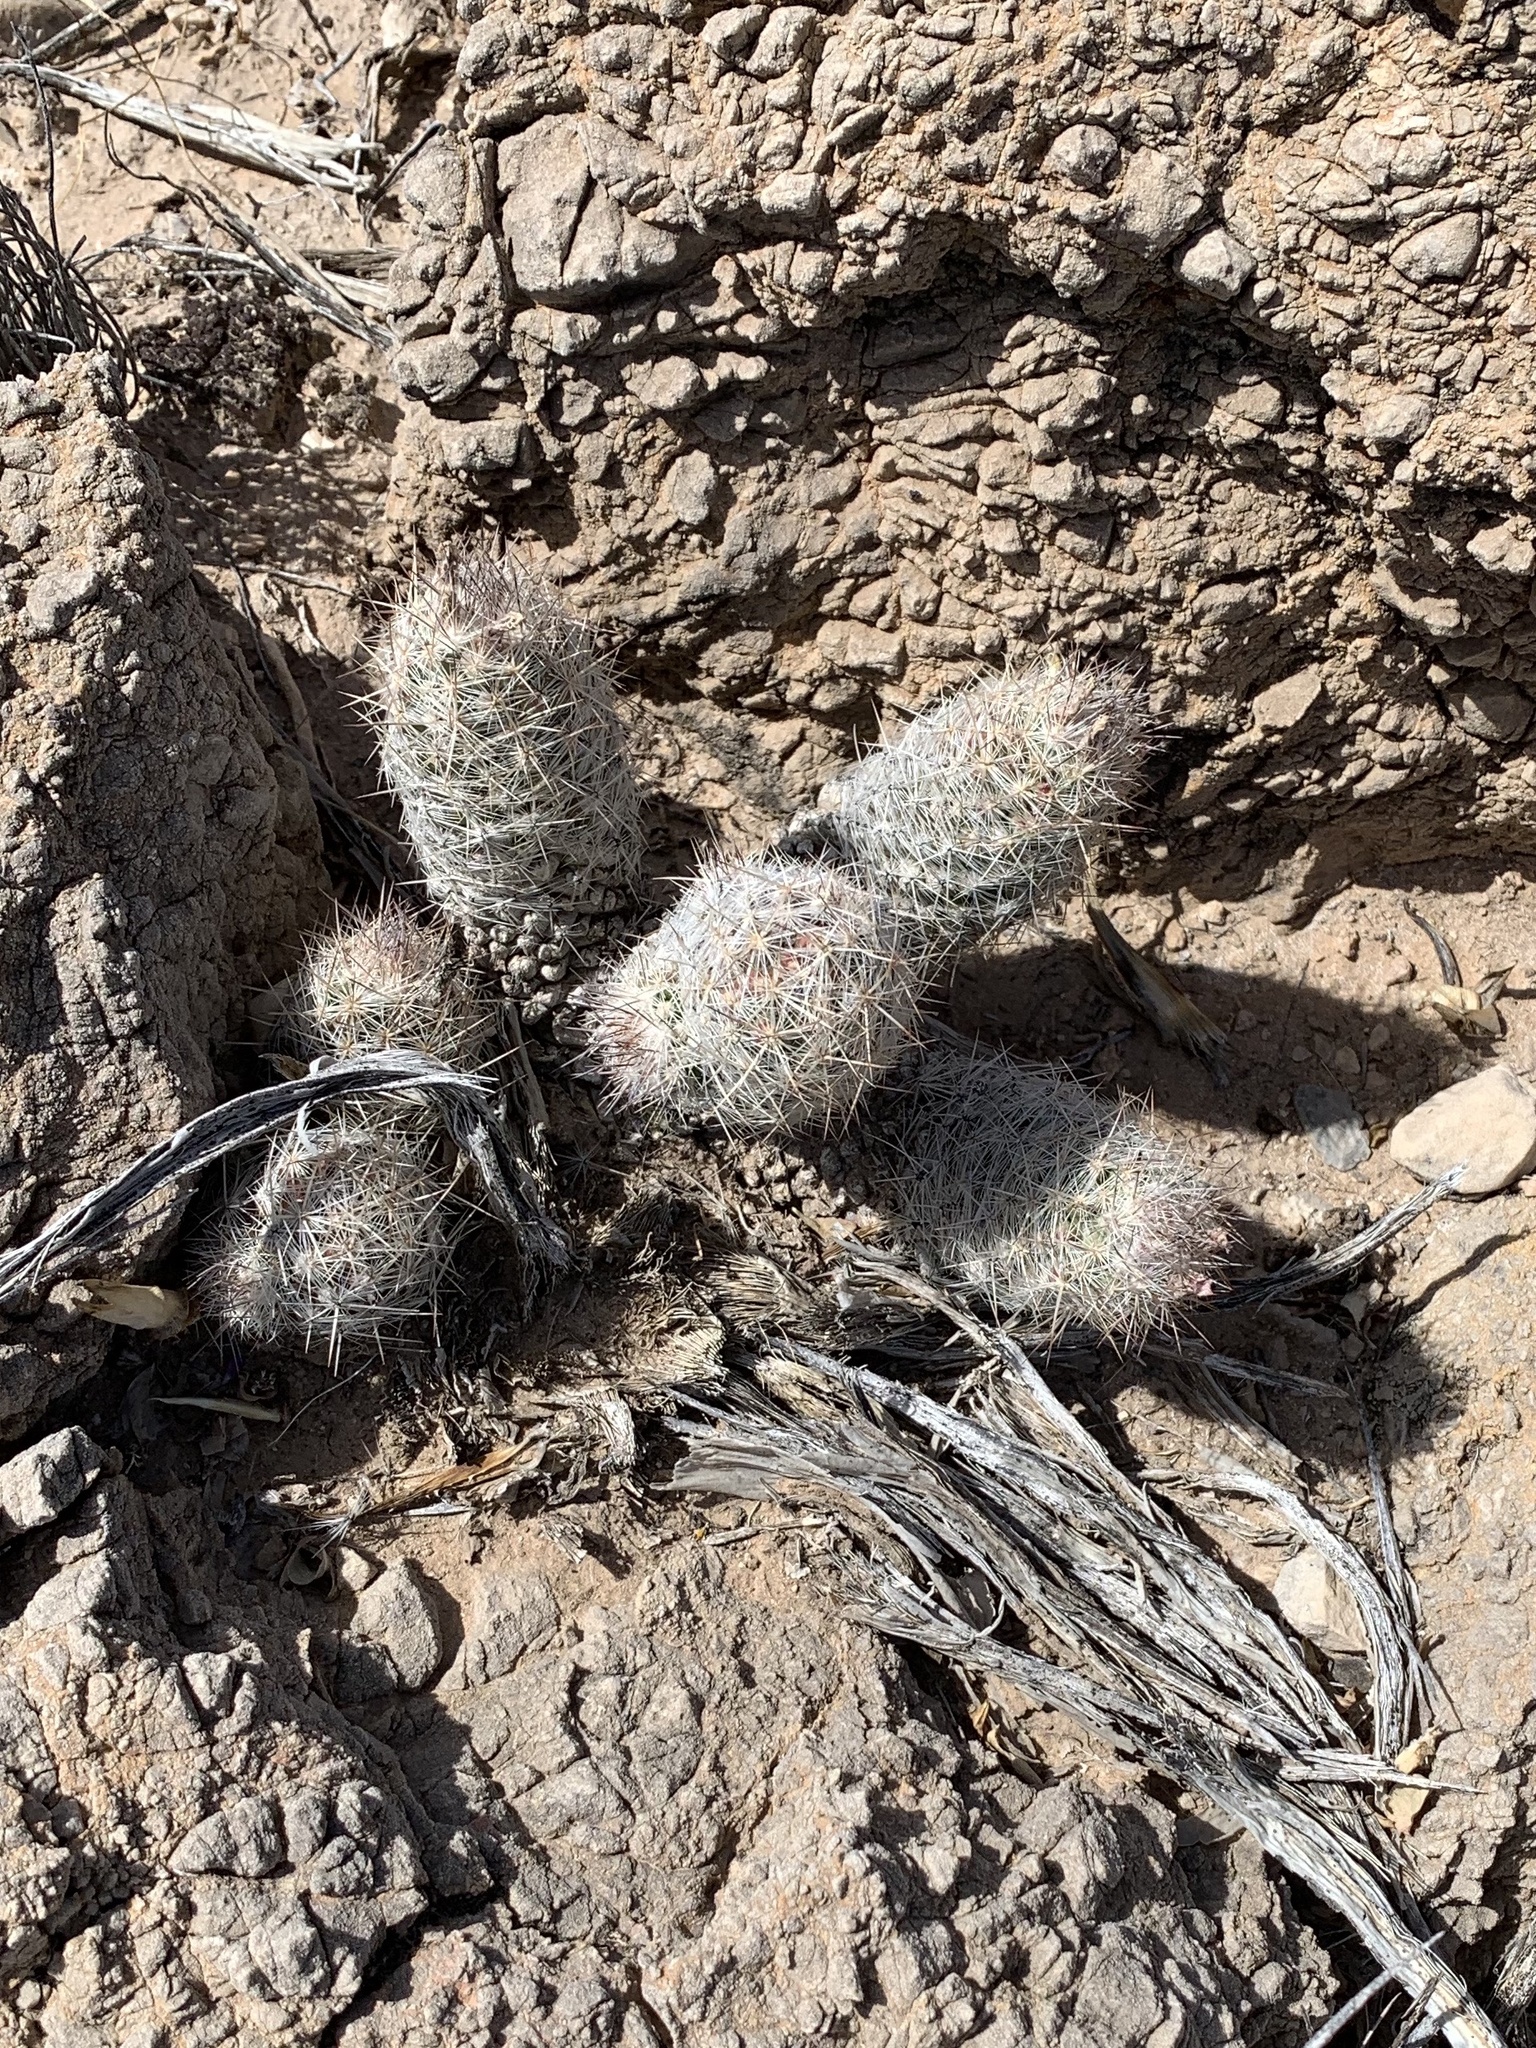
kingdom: Plantae
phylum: Tracheophyta
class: Magnoliopsida
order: Caryophyllales
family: Cactaceae
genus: Pelecyphora
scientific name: Pelecyphora tuberculosa
